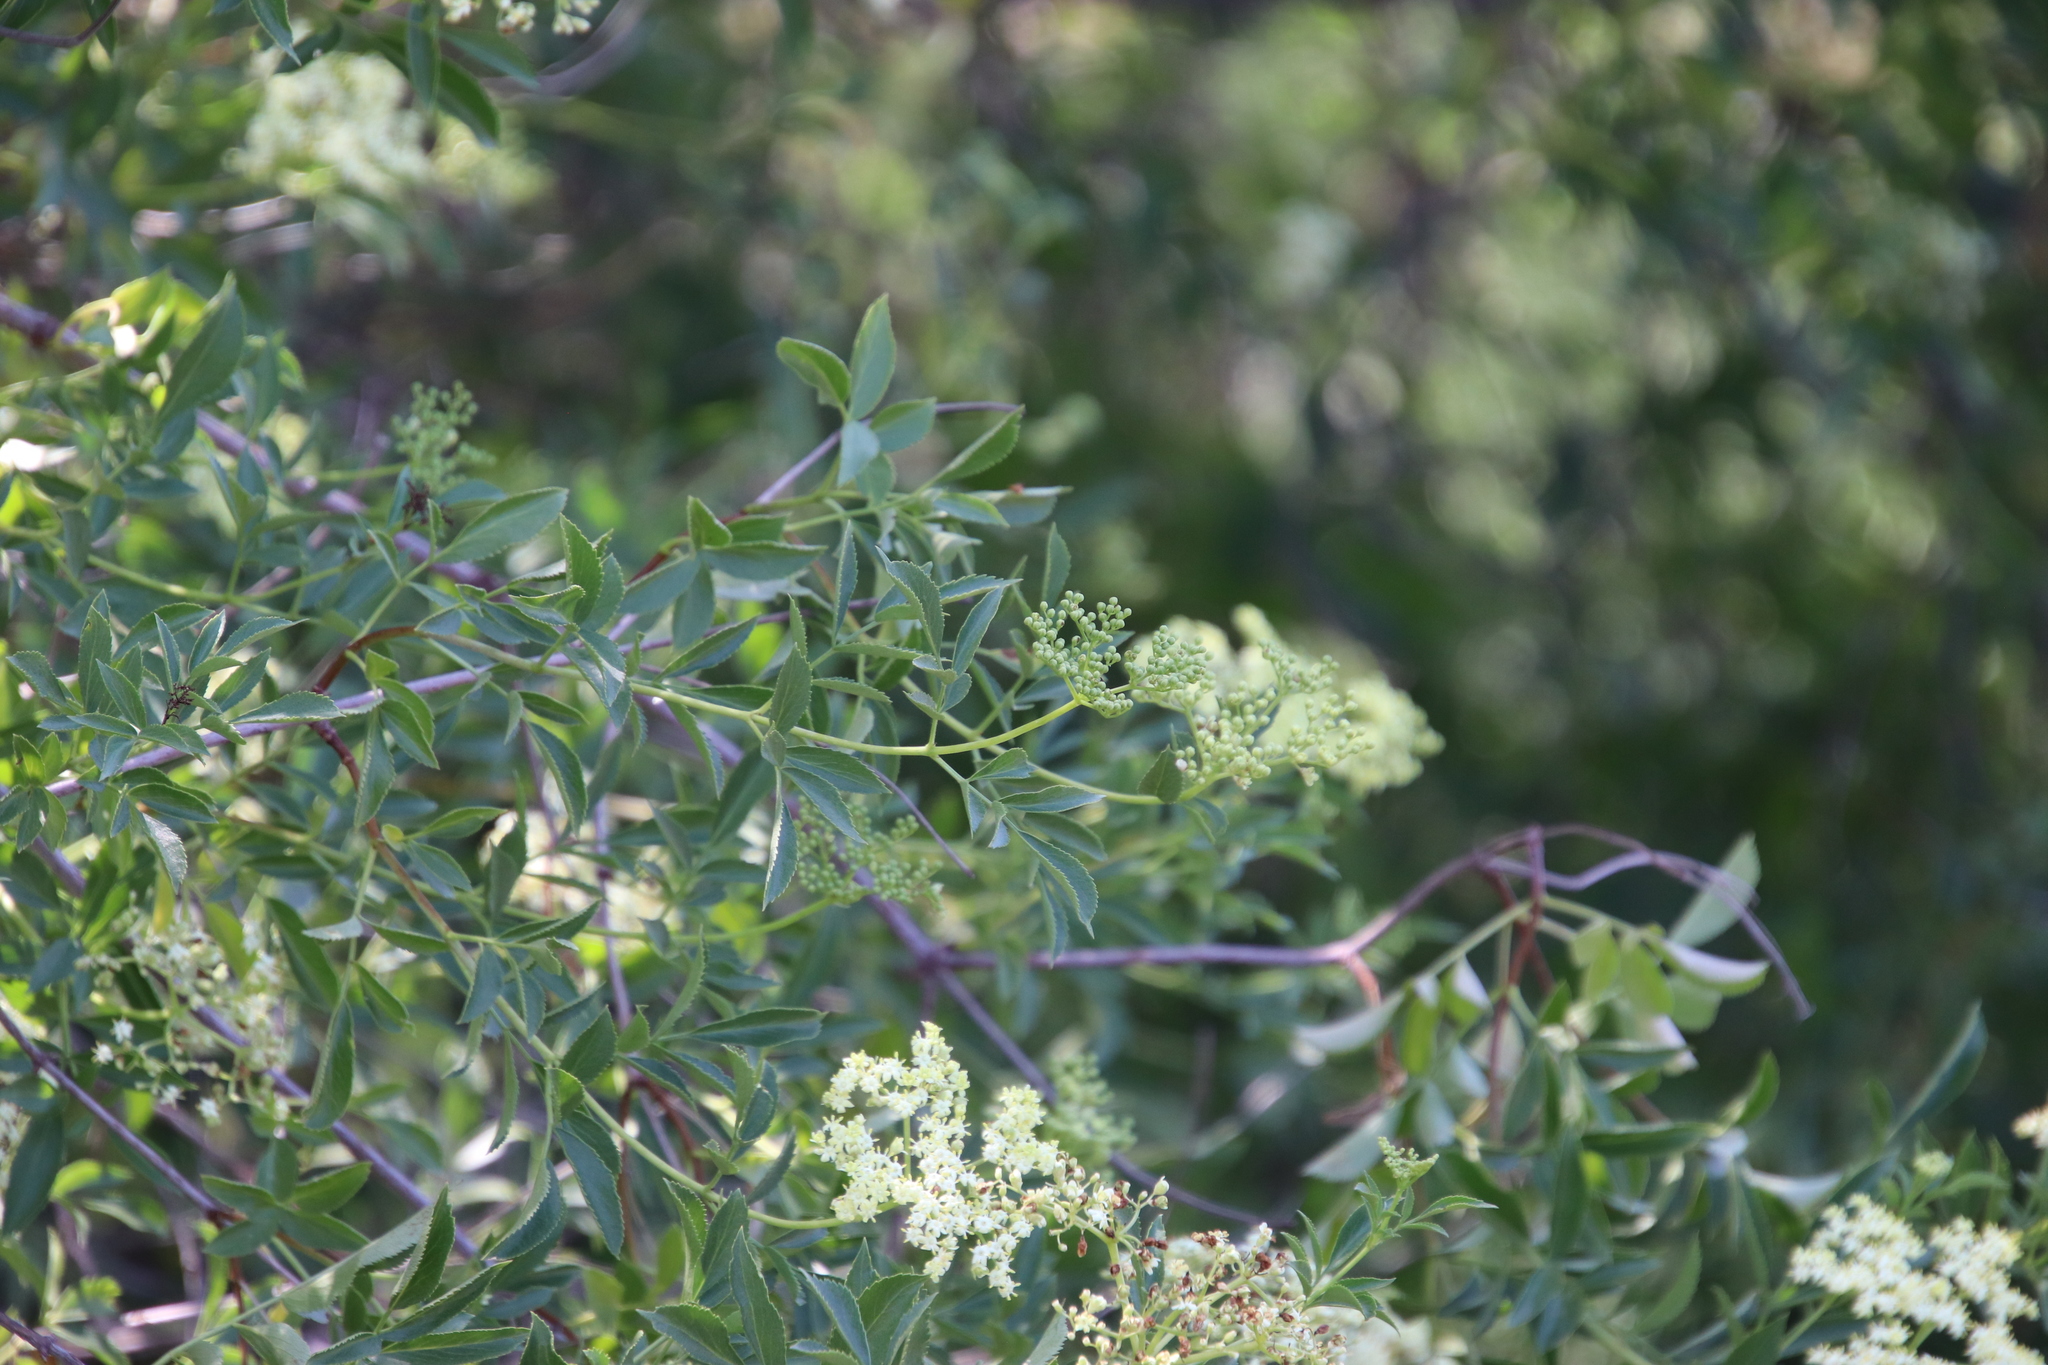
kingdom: Plantae
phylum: Tracheophyta
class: Magnoliopsida
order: Dipsacales
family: Viburnaceae
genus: Sambucus
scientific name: Sambucus cerulea
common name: Blue elder
